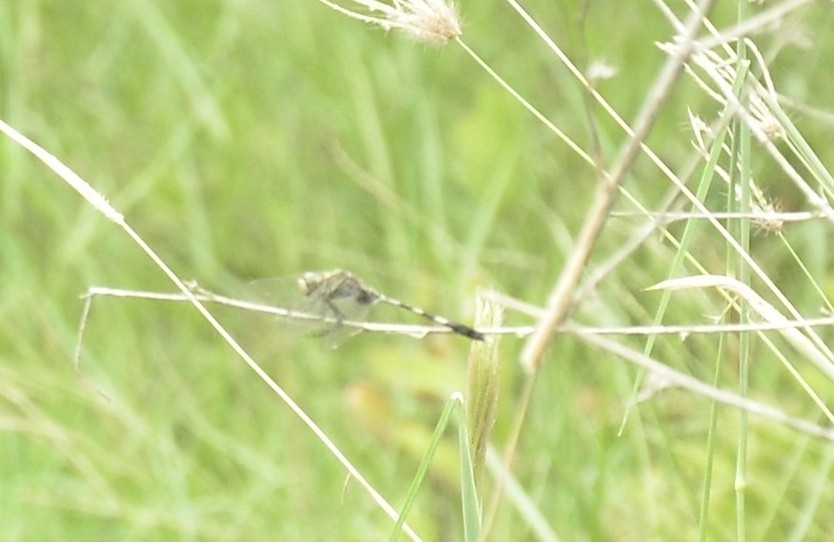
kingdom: Animalia
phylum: Arthropoda
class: Insecta
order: Odonata
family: Libellulidae
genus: Orthetrum
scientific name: Orthetrum sabina
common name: Slender skimmer
